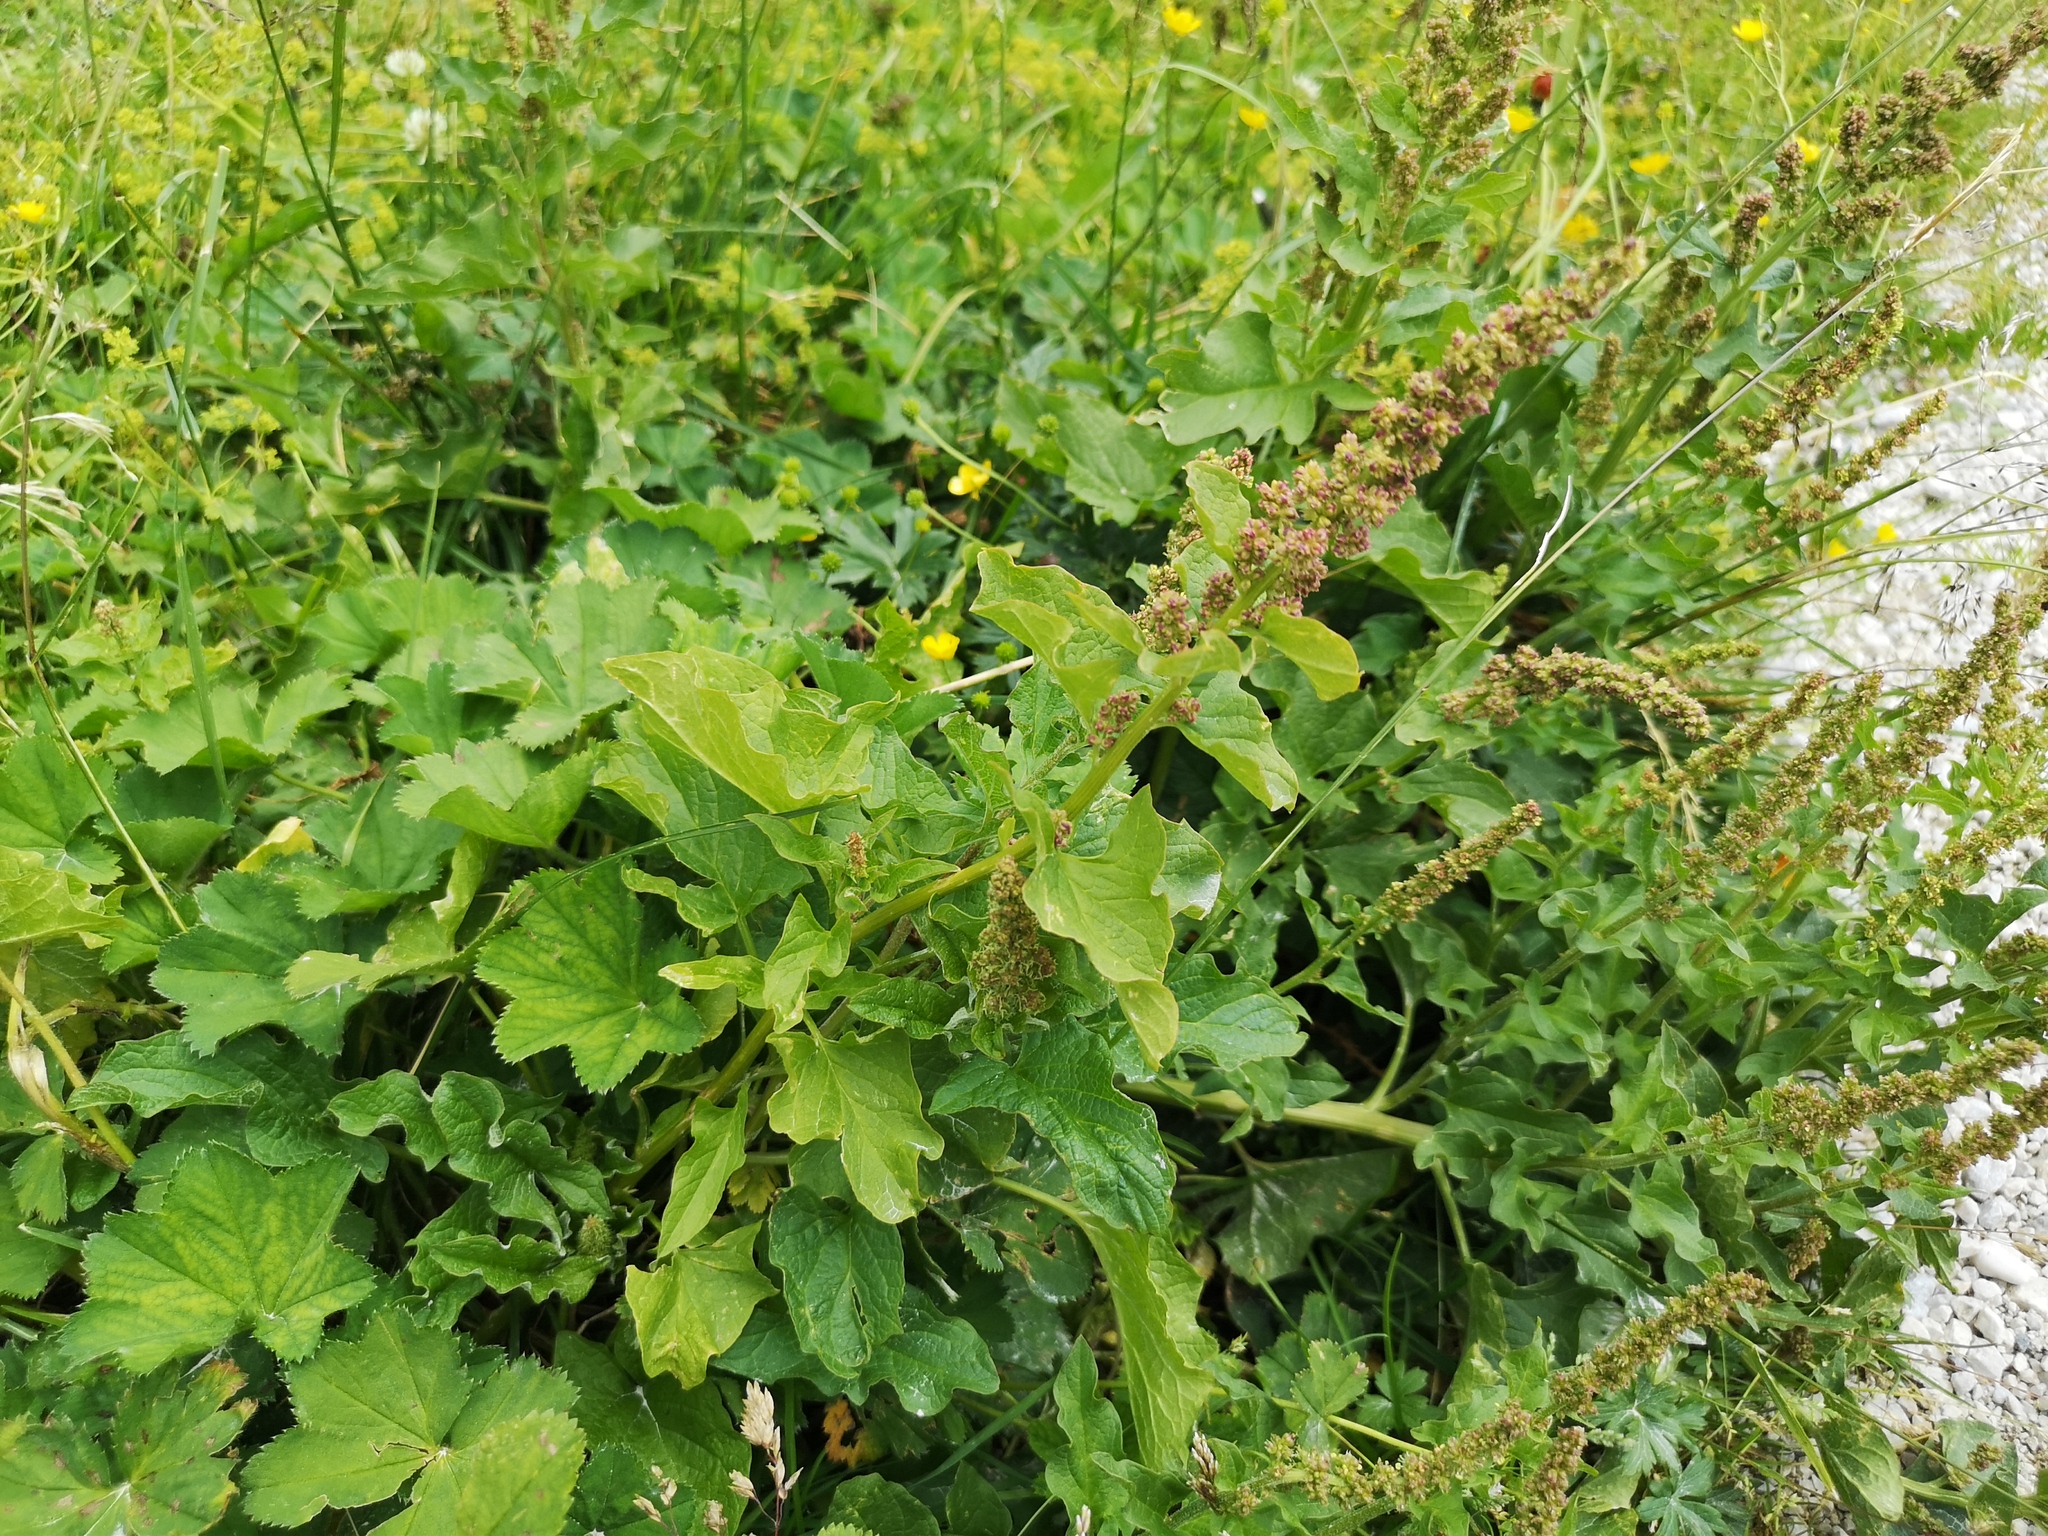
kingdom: Plantae
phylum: Tracheophyta
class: Magnoliopsida
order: Caryophyllales
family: Amaranthaceae
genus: Blitum
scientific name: Blitum bonus-henricus
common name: Good king henry
